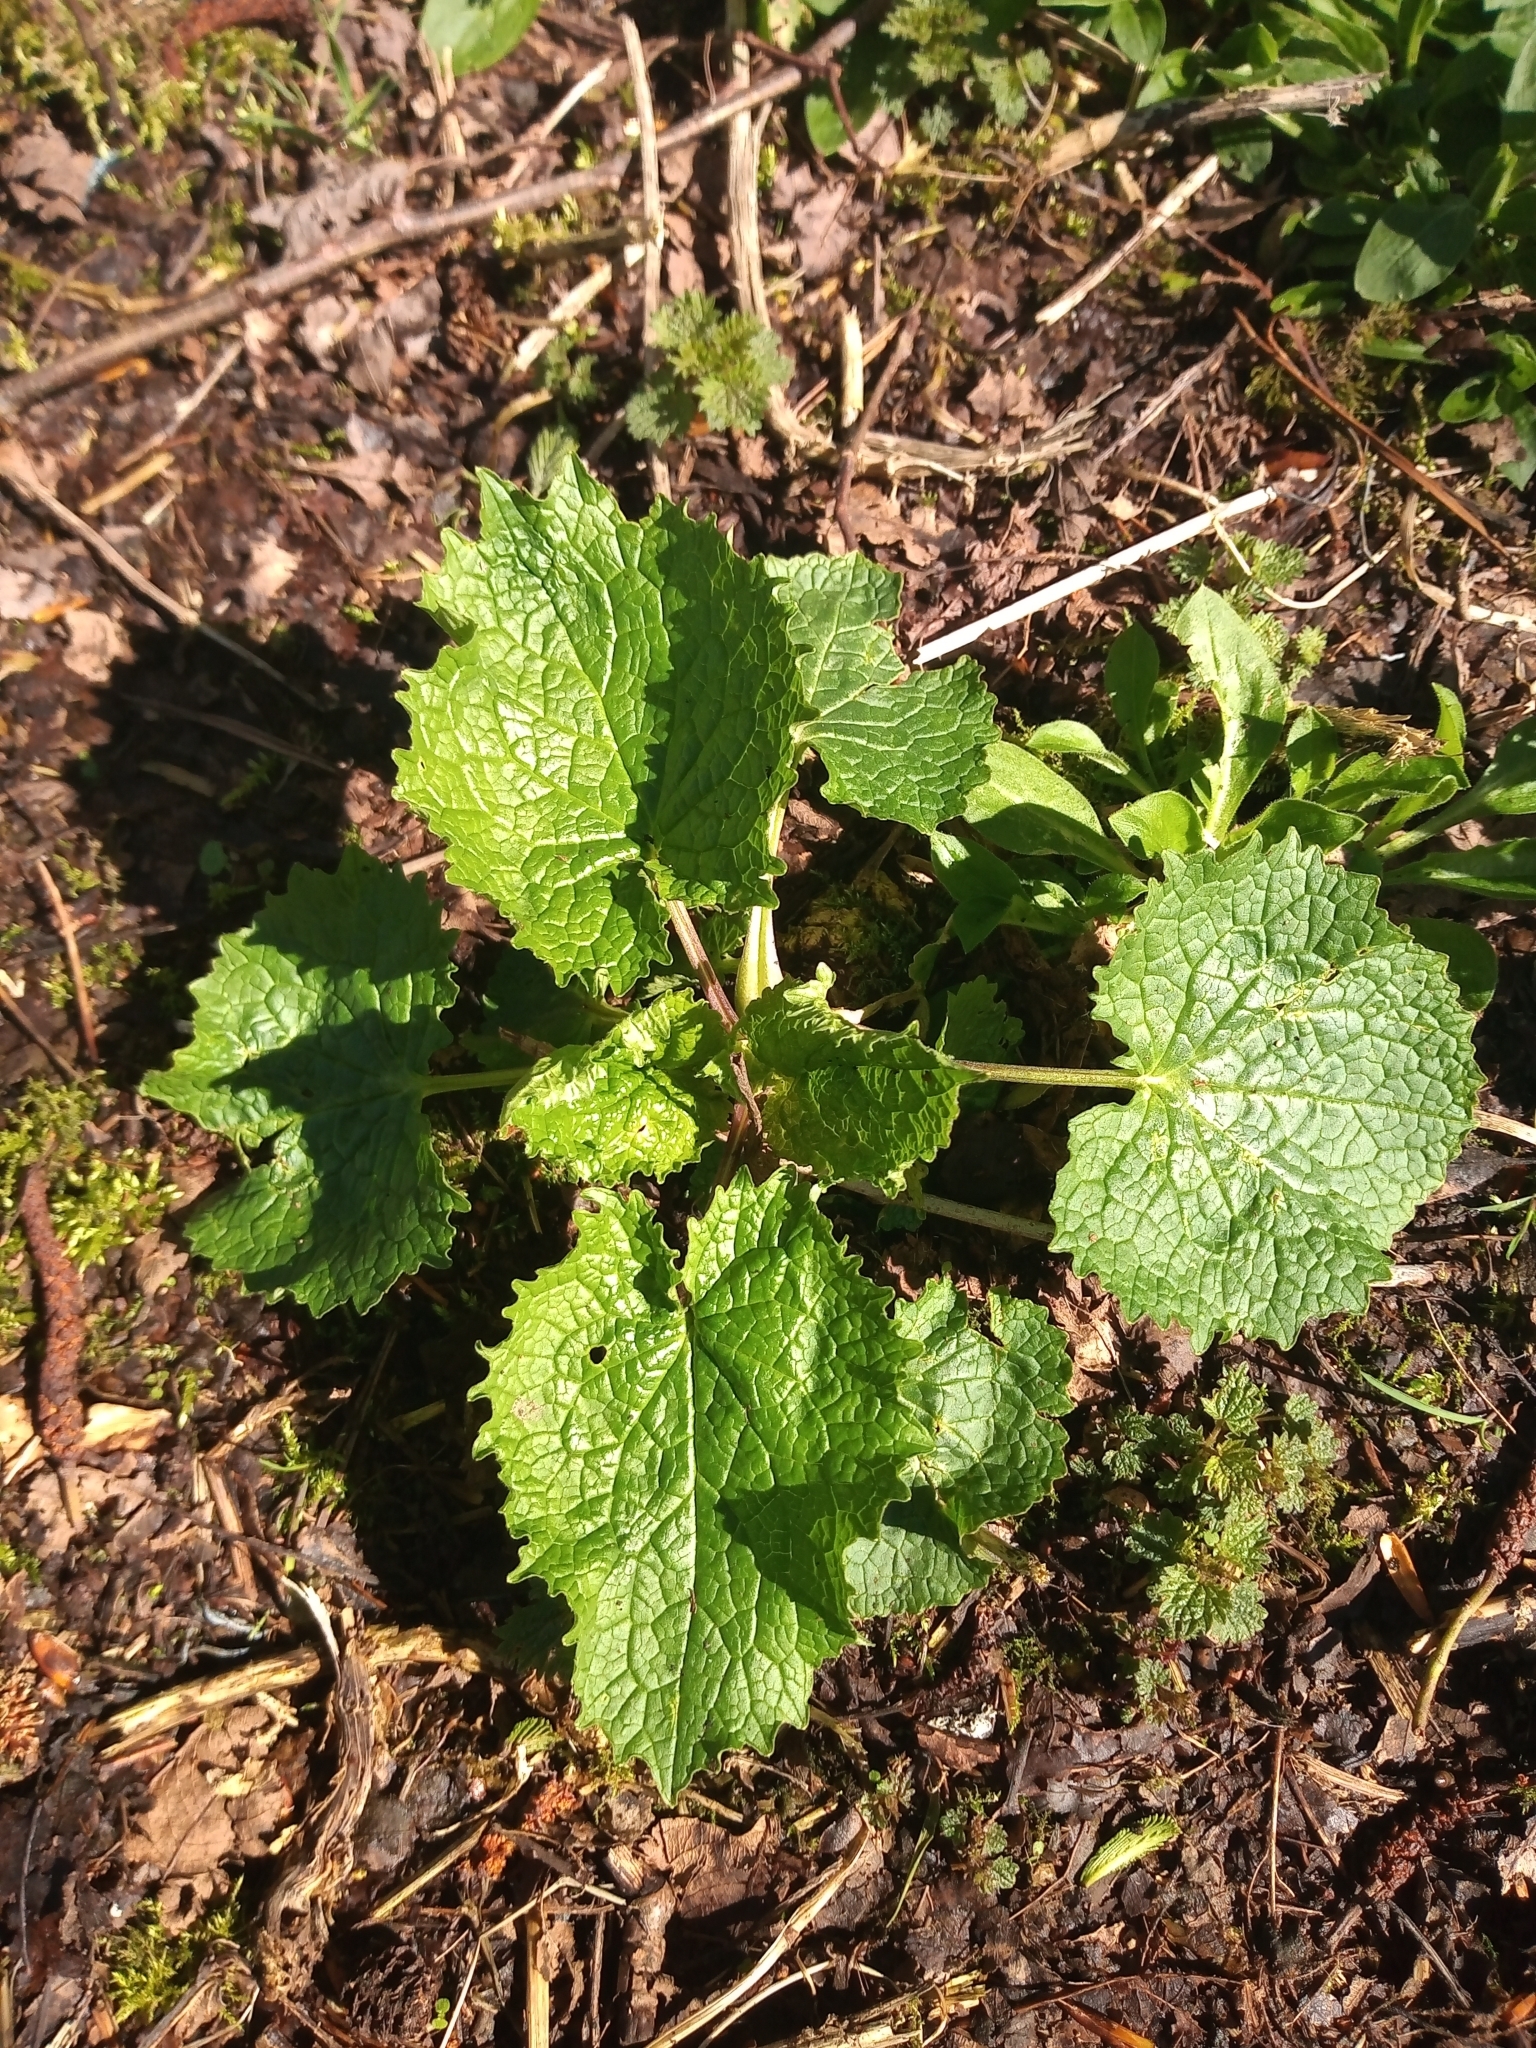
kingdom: Plantae
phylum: Tracheophyta
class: Magnoliopsida
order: Brassicales
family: Brassicaceae
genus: Alliaria
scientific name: Alliaria petiolata
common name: Garlic mustard
